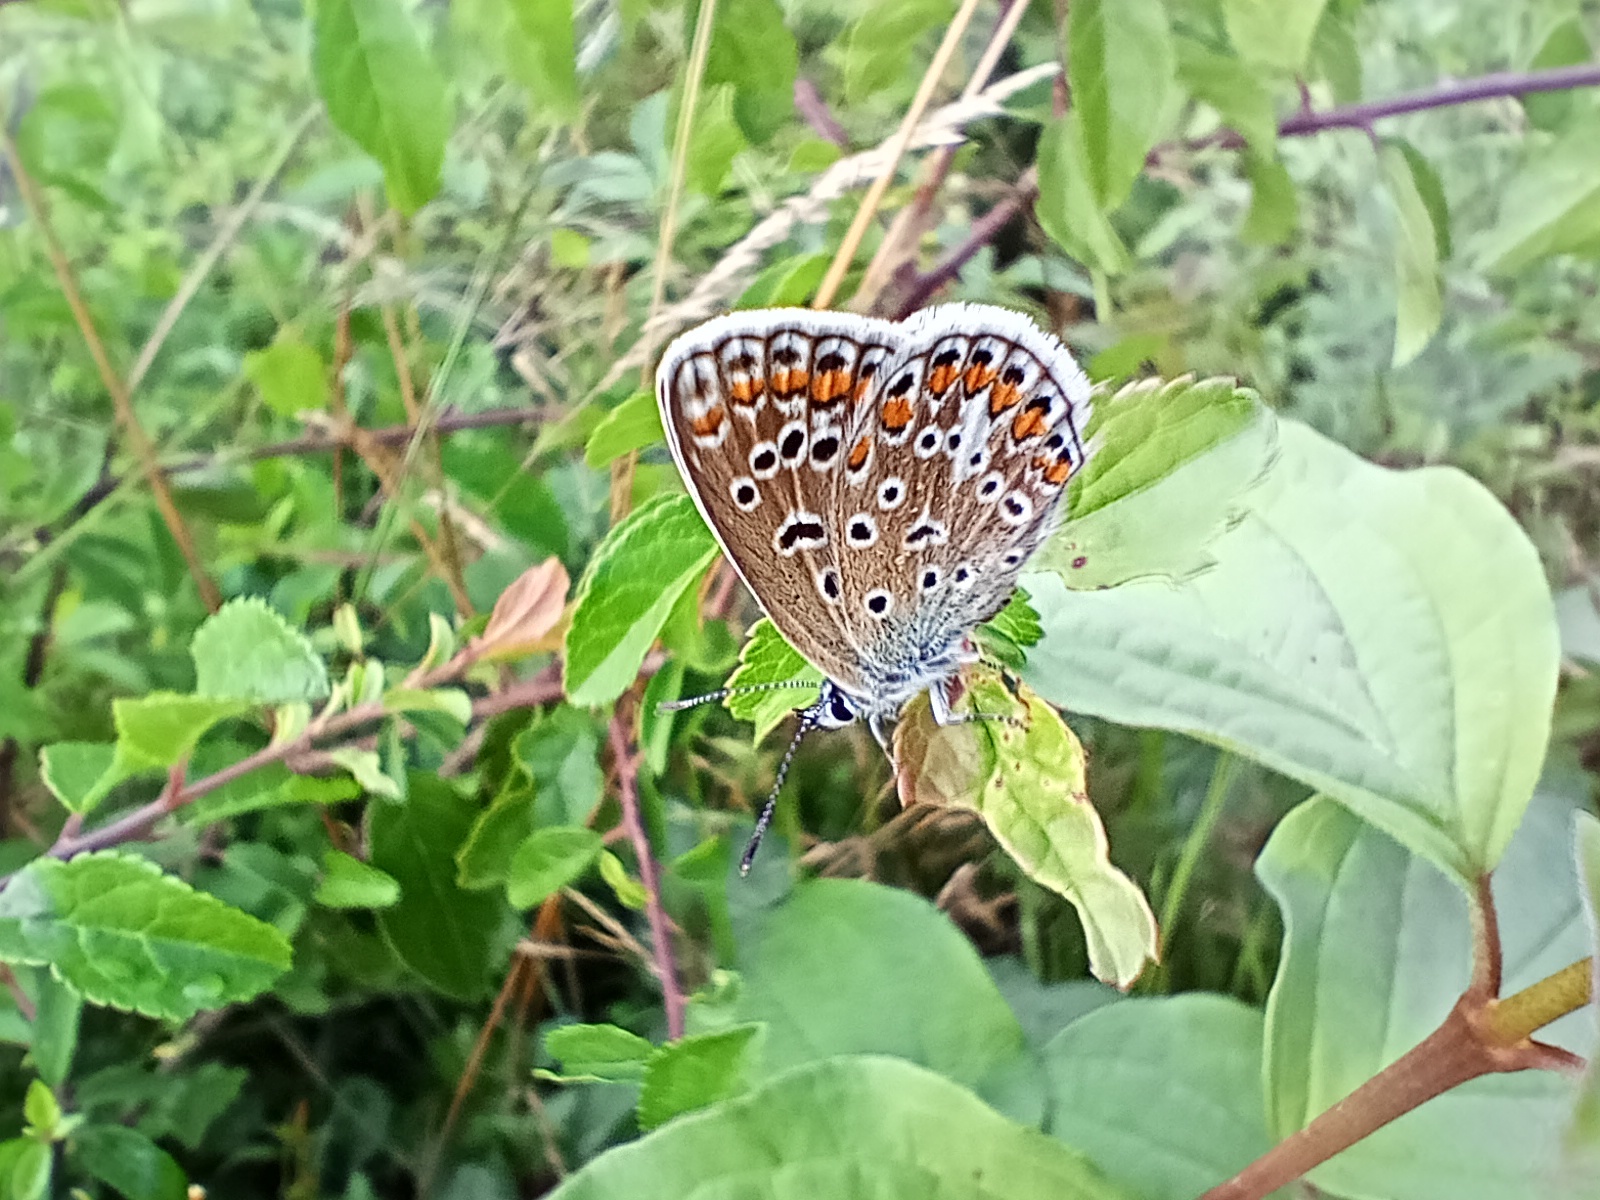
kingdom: Animalia
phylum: Arthropoda
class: Insecta
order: Lepidoptera
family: Lycaenidae
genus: Polyommatus
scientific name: Polyommatus icarus
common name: Common blue
